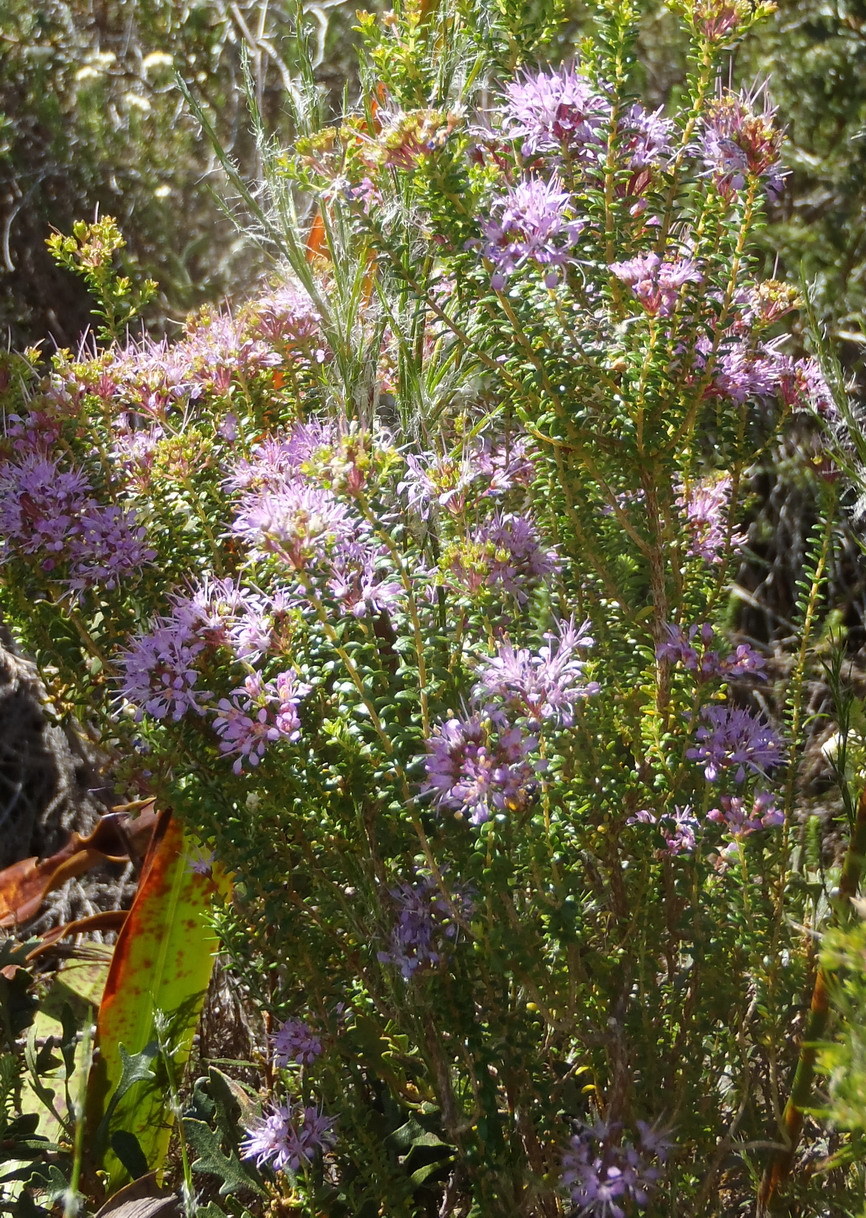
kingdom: Plantae
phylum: Tracheophyta
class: Magnoliopsida
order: Sapindales
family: Rutaceae
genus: Agathosma
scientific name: Agathosma capensis
